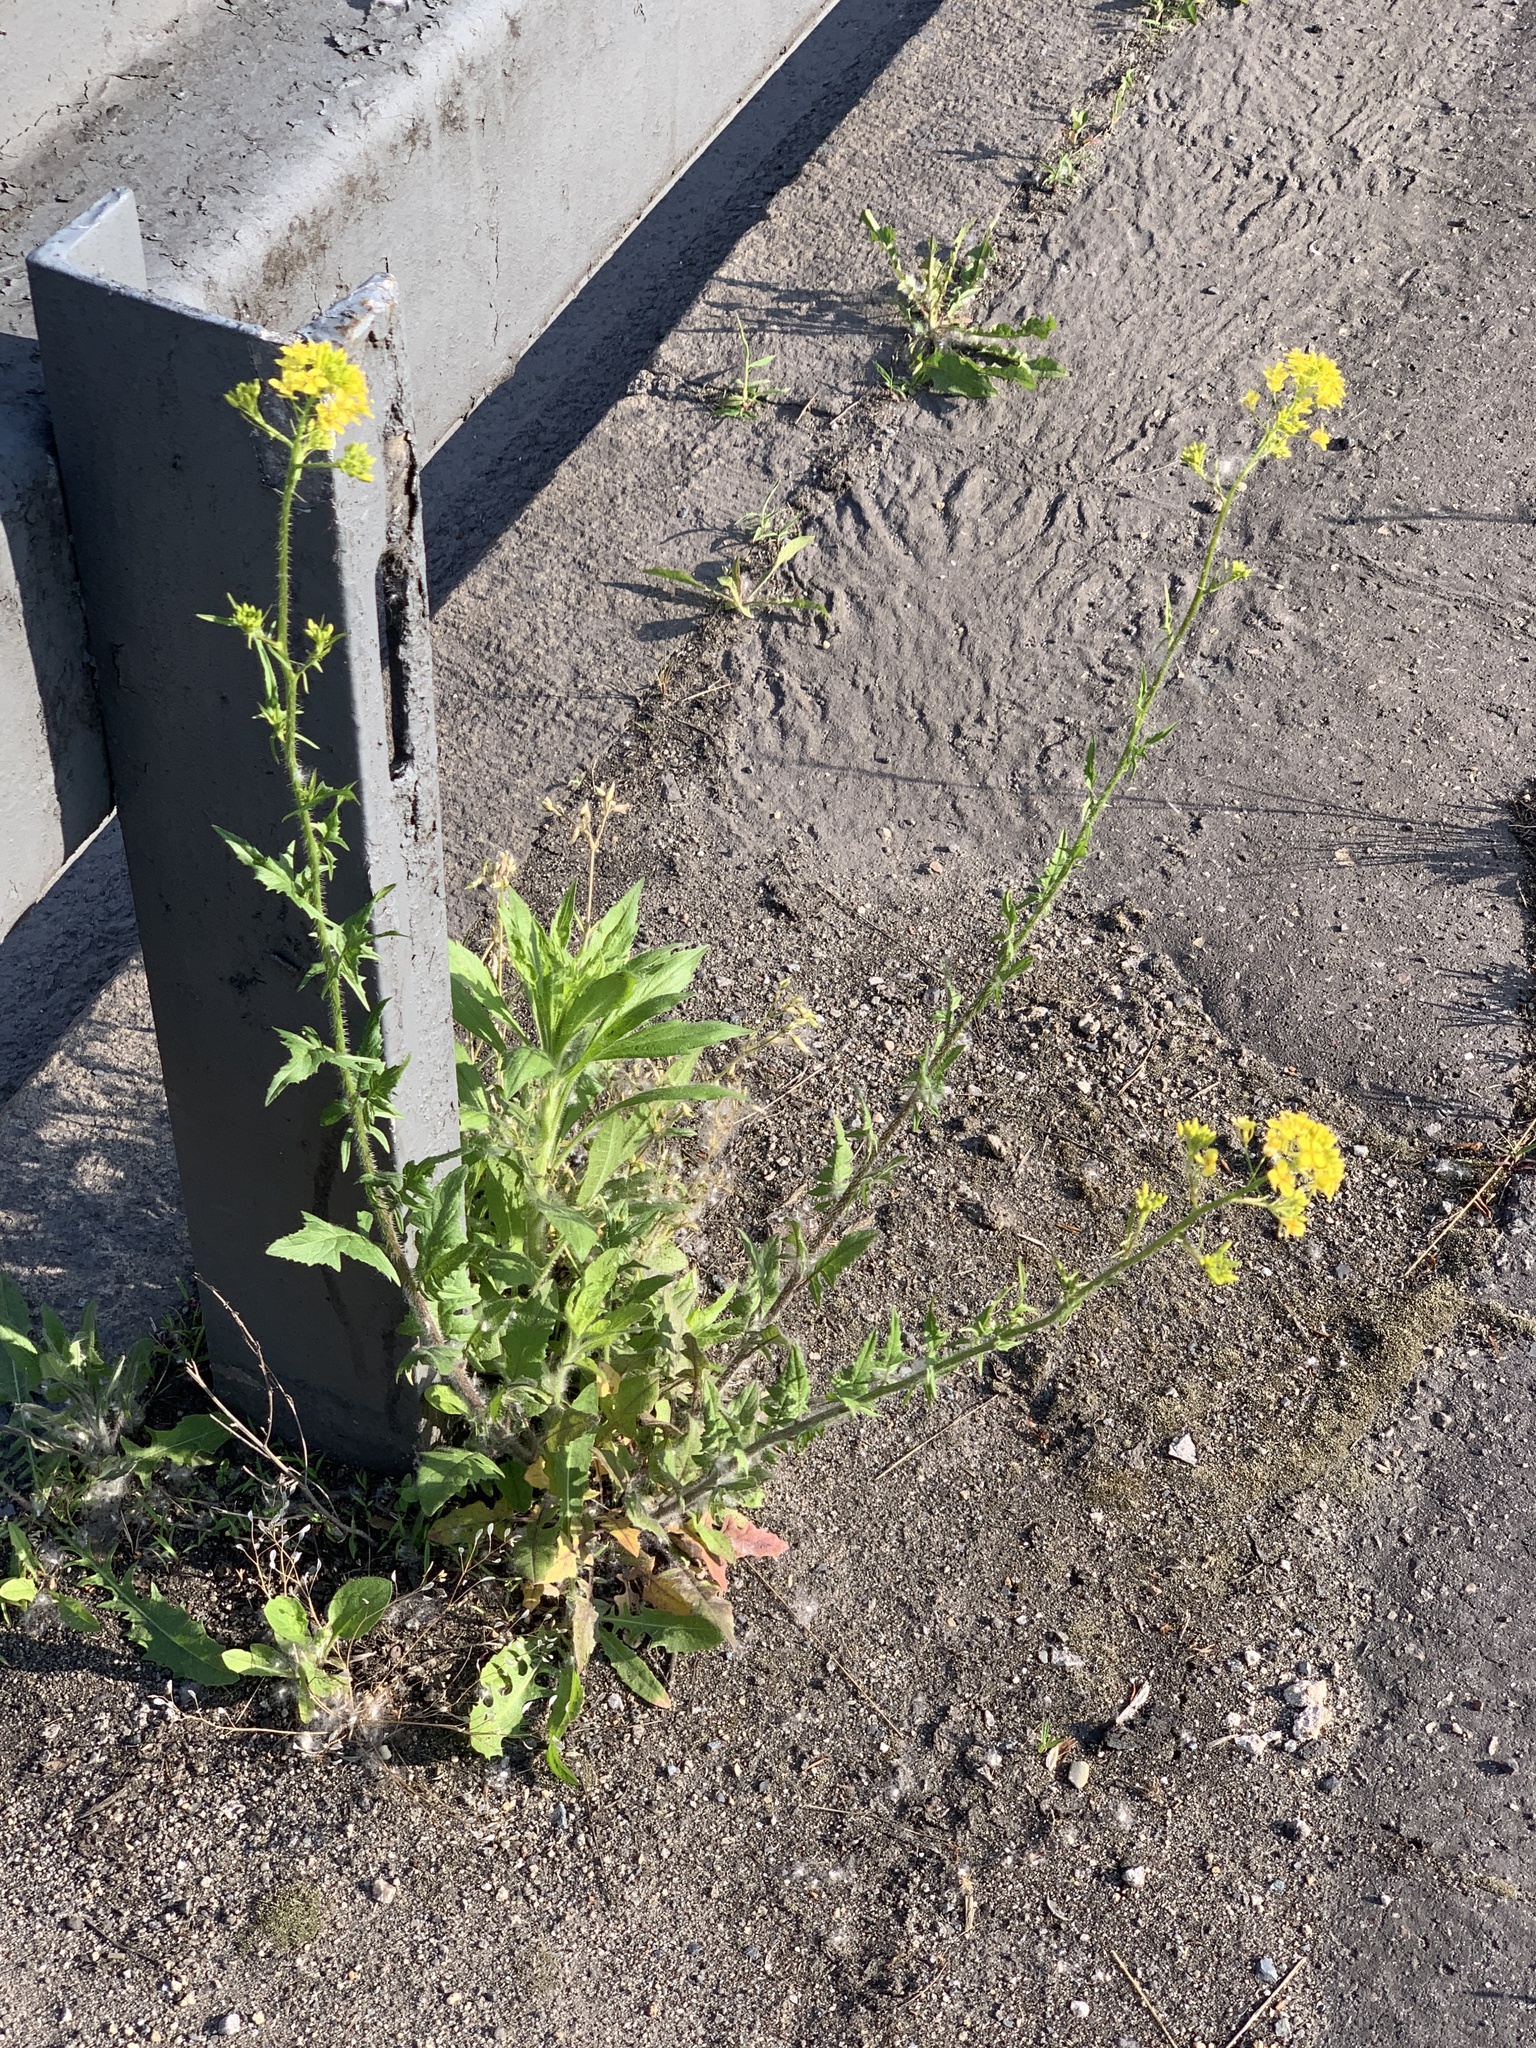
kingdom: Plantae
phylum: Tracheophyta
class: Magnoliopsida
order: Brassicales
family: Brassicaceae
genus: Sisymbrium
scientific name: Sisymbrium loeselii
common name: False london-rocket
